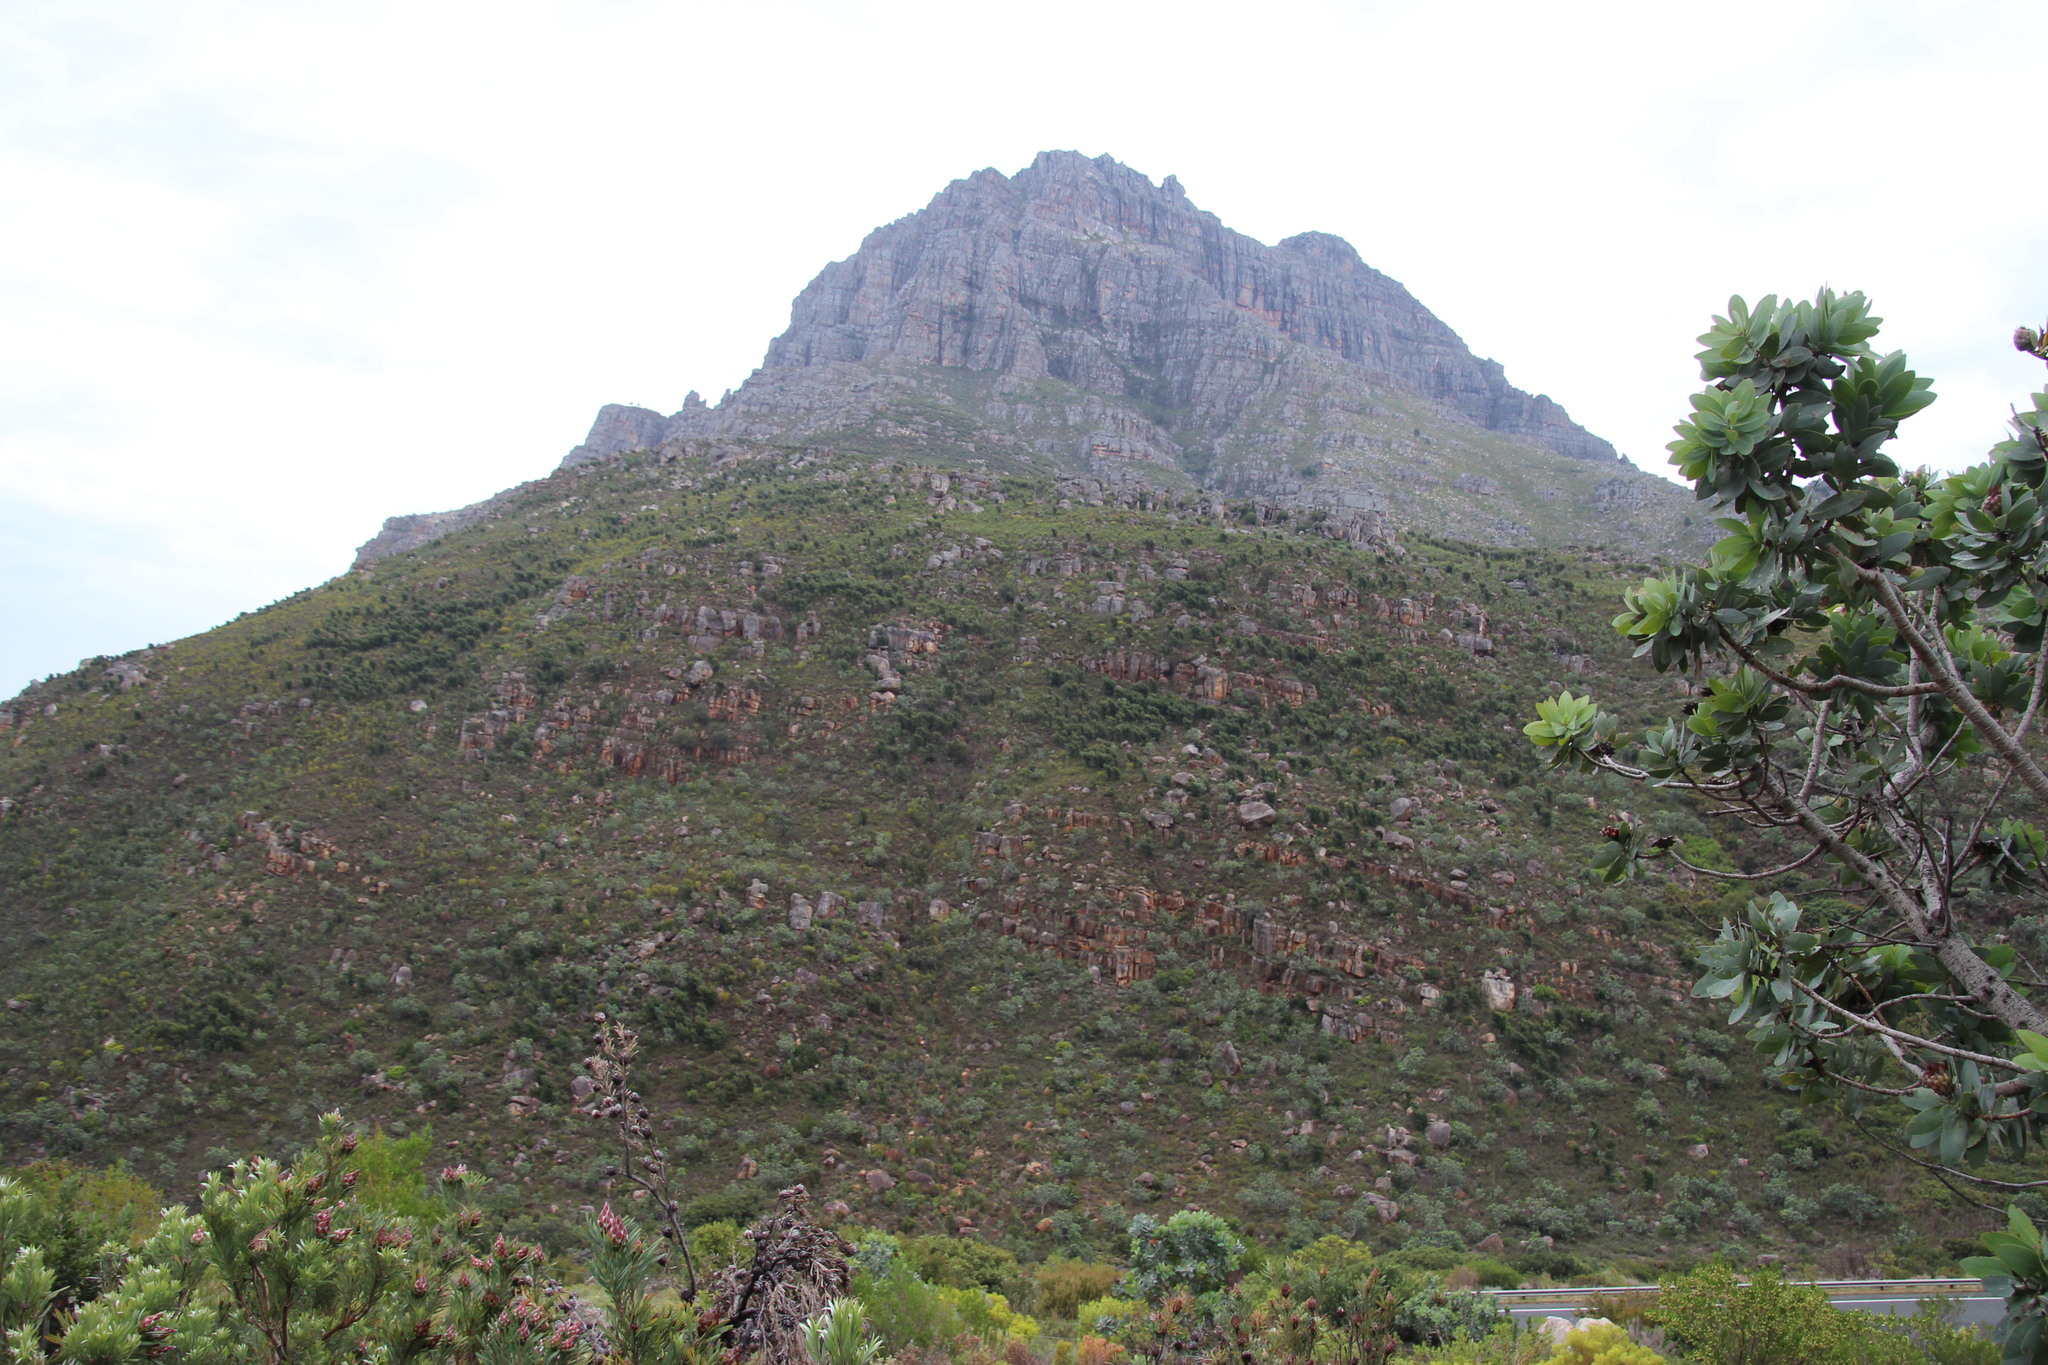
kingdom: Plantae
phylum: Tracheophyta
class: Magnoliopsida
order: Proteales
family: Proteaceae
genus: Hakea
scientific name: Hakea sericea
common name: Needle bush
